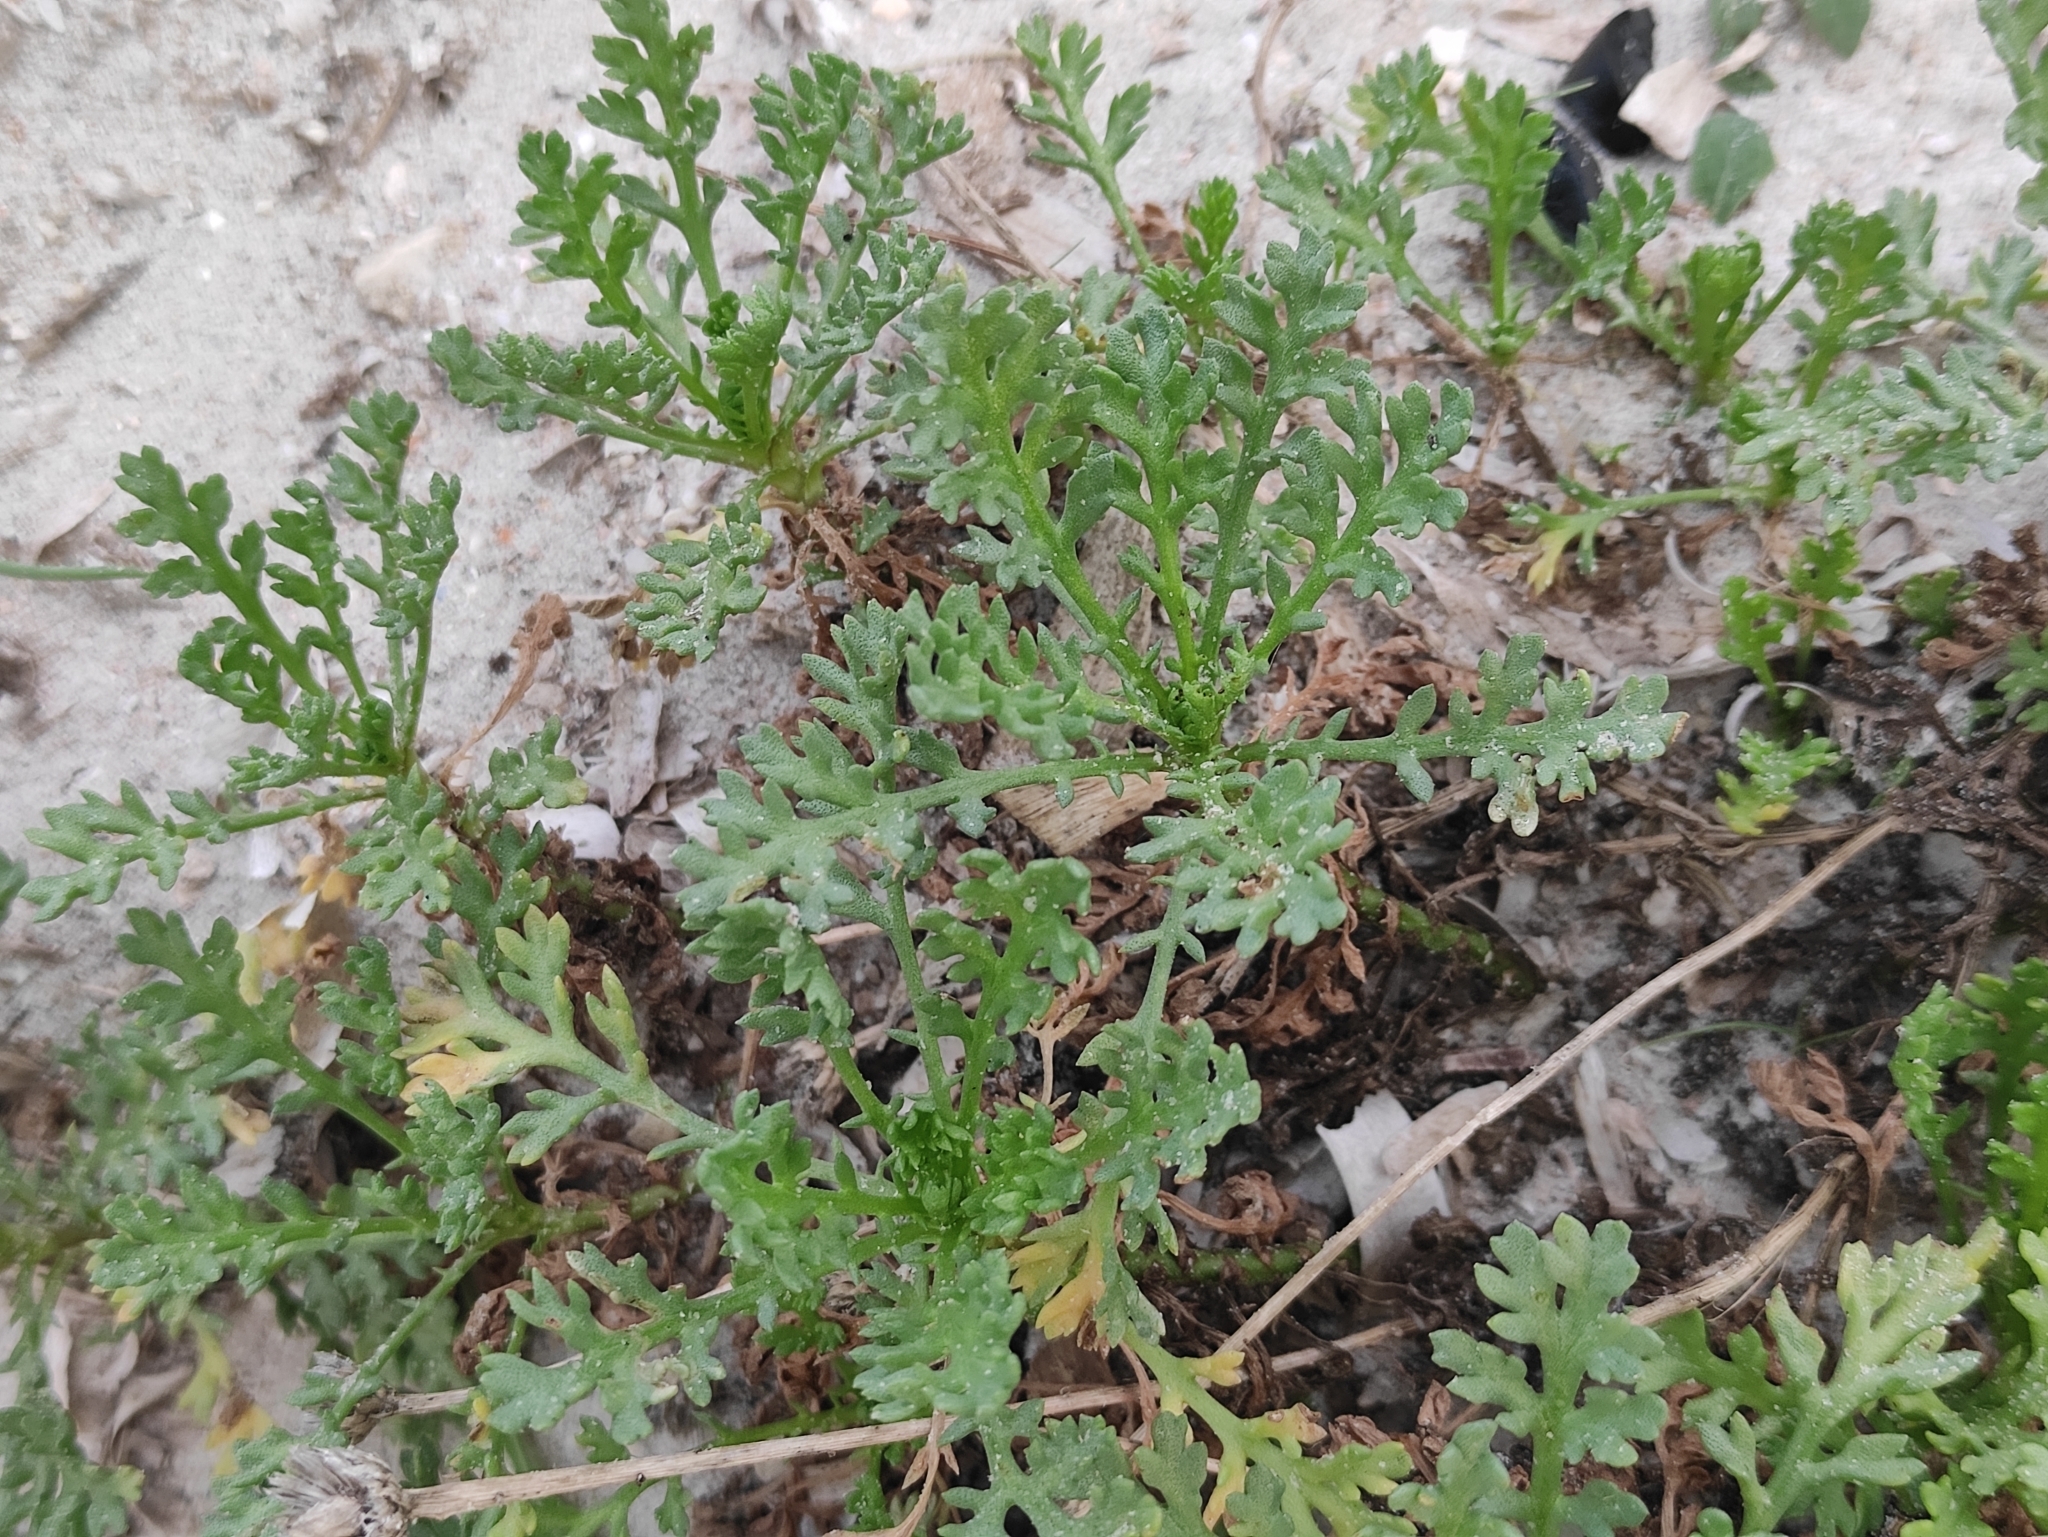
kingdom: Plantae
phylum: Tracheophyta
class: Magnoliopsida
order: Asterales
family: Asteraceae
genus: Anthemis
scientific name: Anthemis maritima
